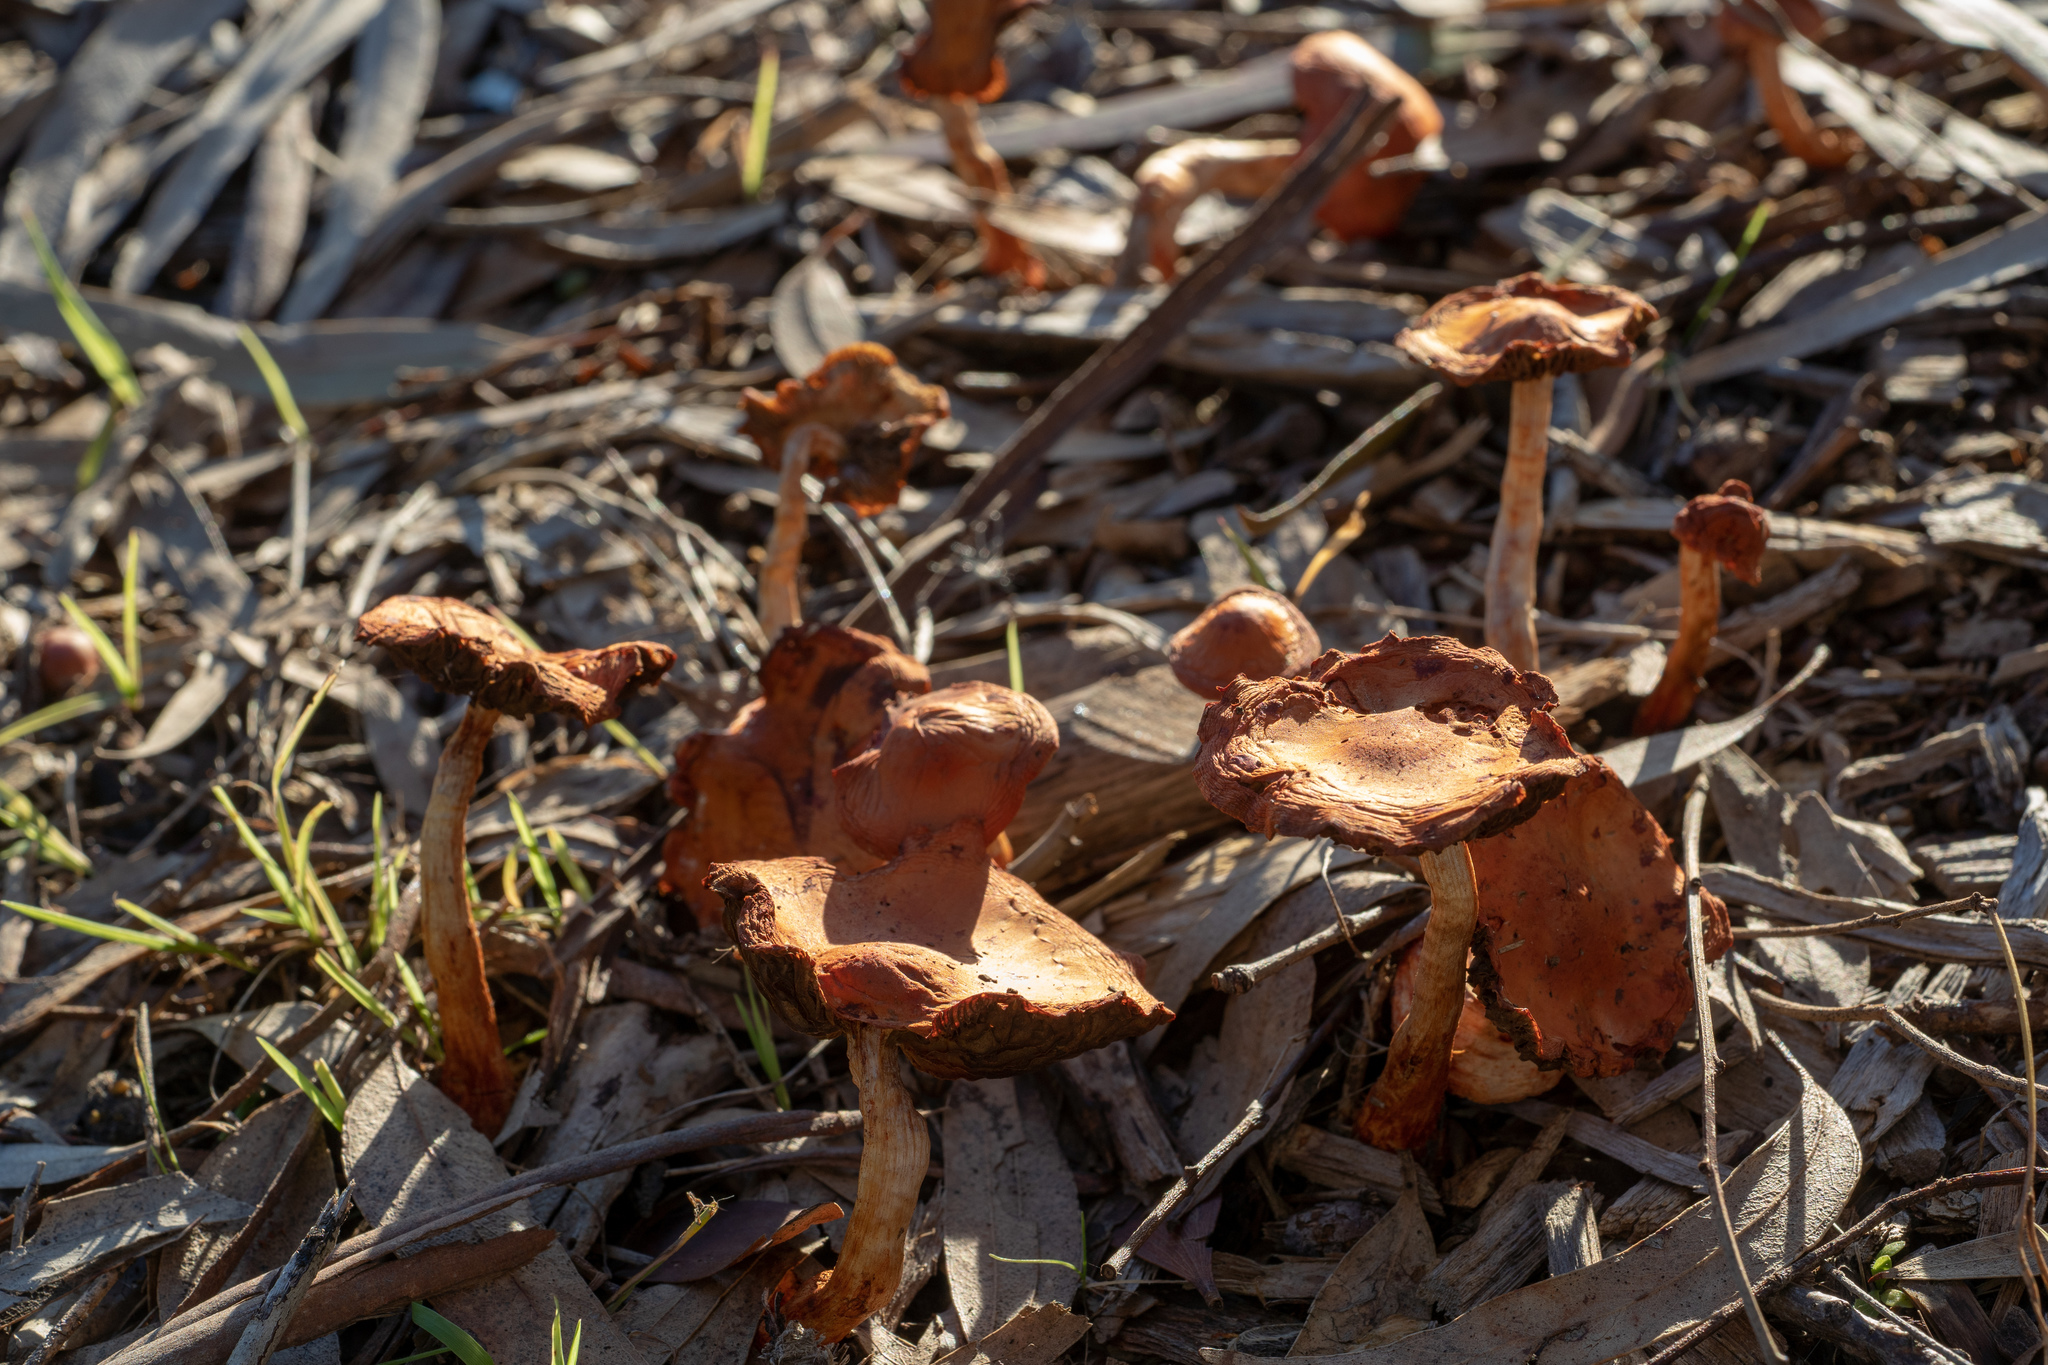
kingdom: Fungi
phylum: Basidiomycota
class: Agaricomycetes
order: Agaricales
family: Strophariaceae
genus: Leratiomyces
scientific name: Leratiomyces ceres
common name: Redlead roundhead
